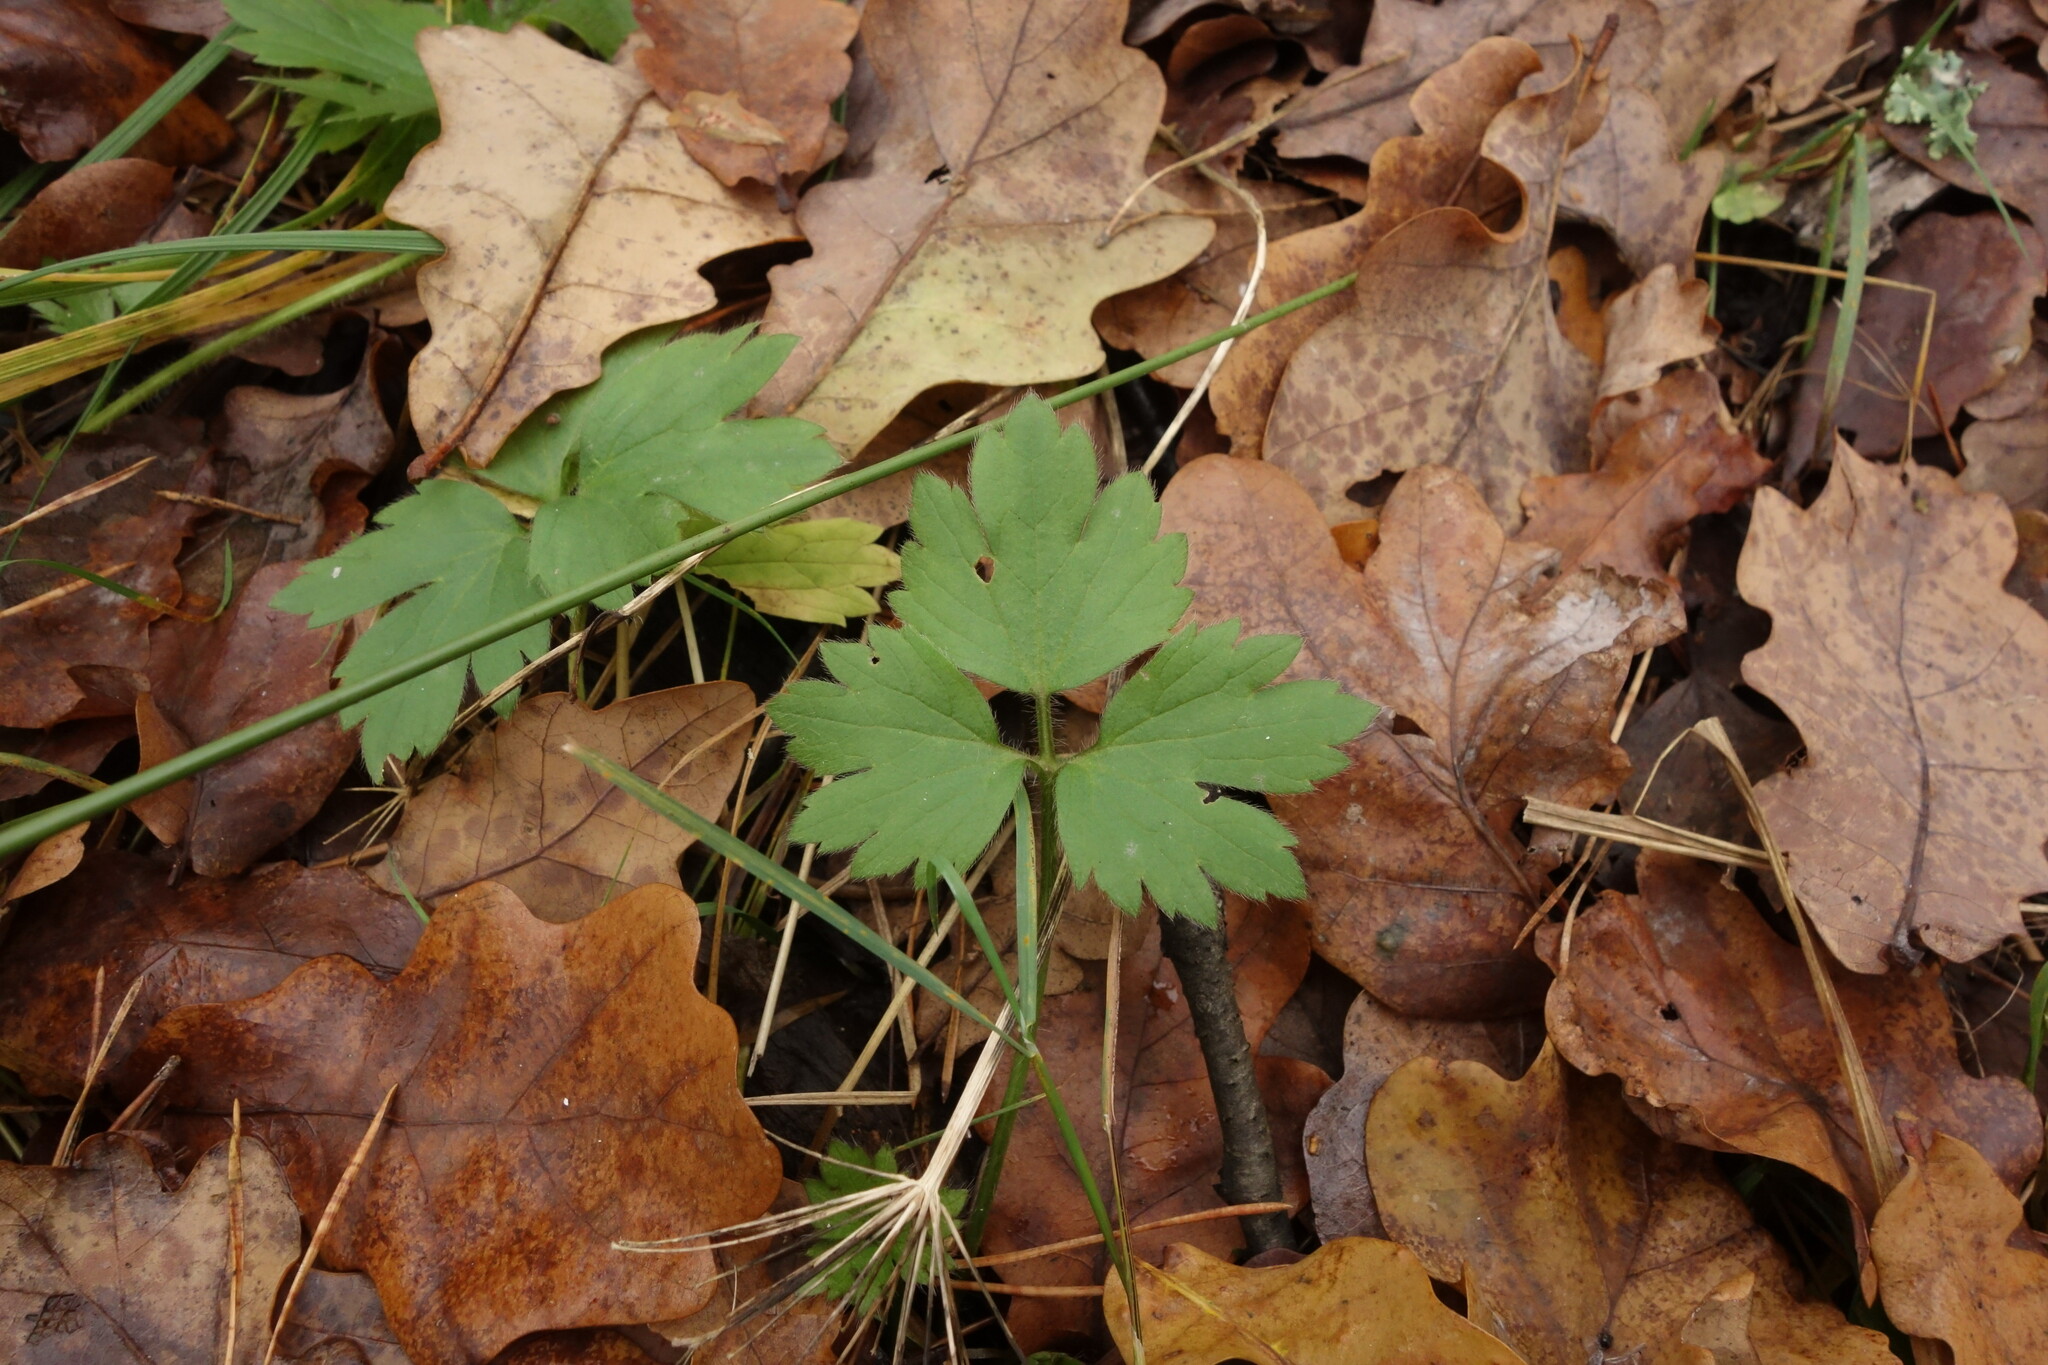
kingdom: Plantae
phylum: Tracheophyta
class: Magnoliopsida
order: Ranunculales
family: Ranunculaceae
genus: Ranunculus
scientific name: Ranunculus repens
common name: Creeping buttercup
